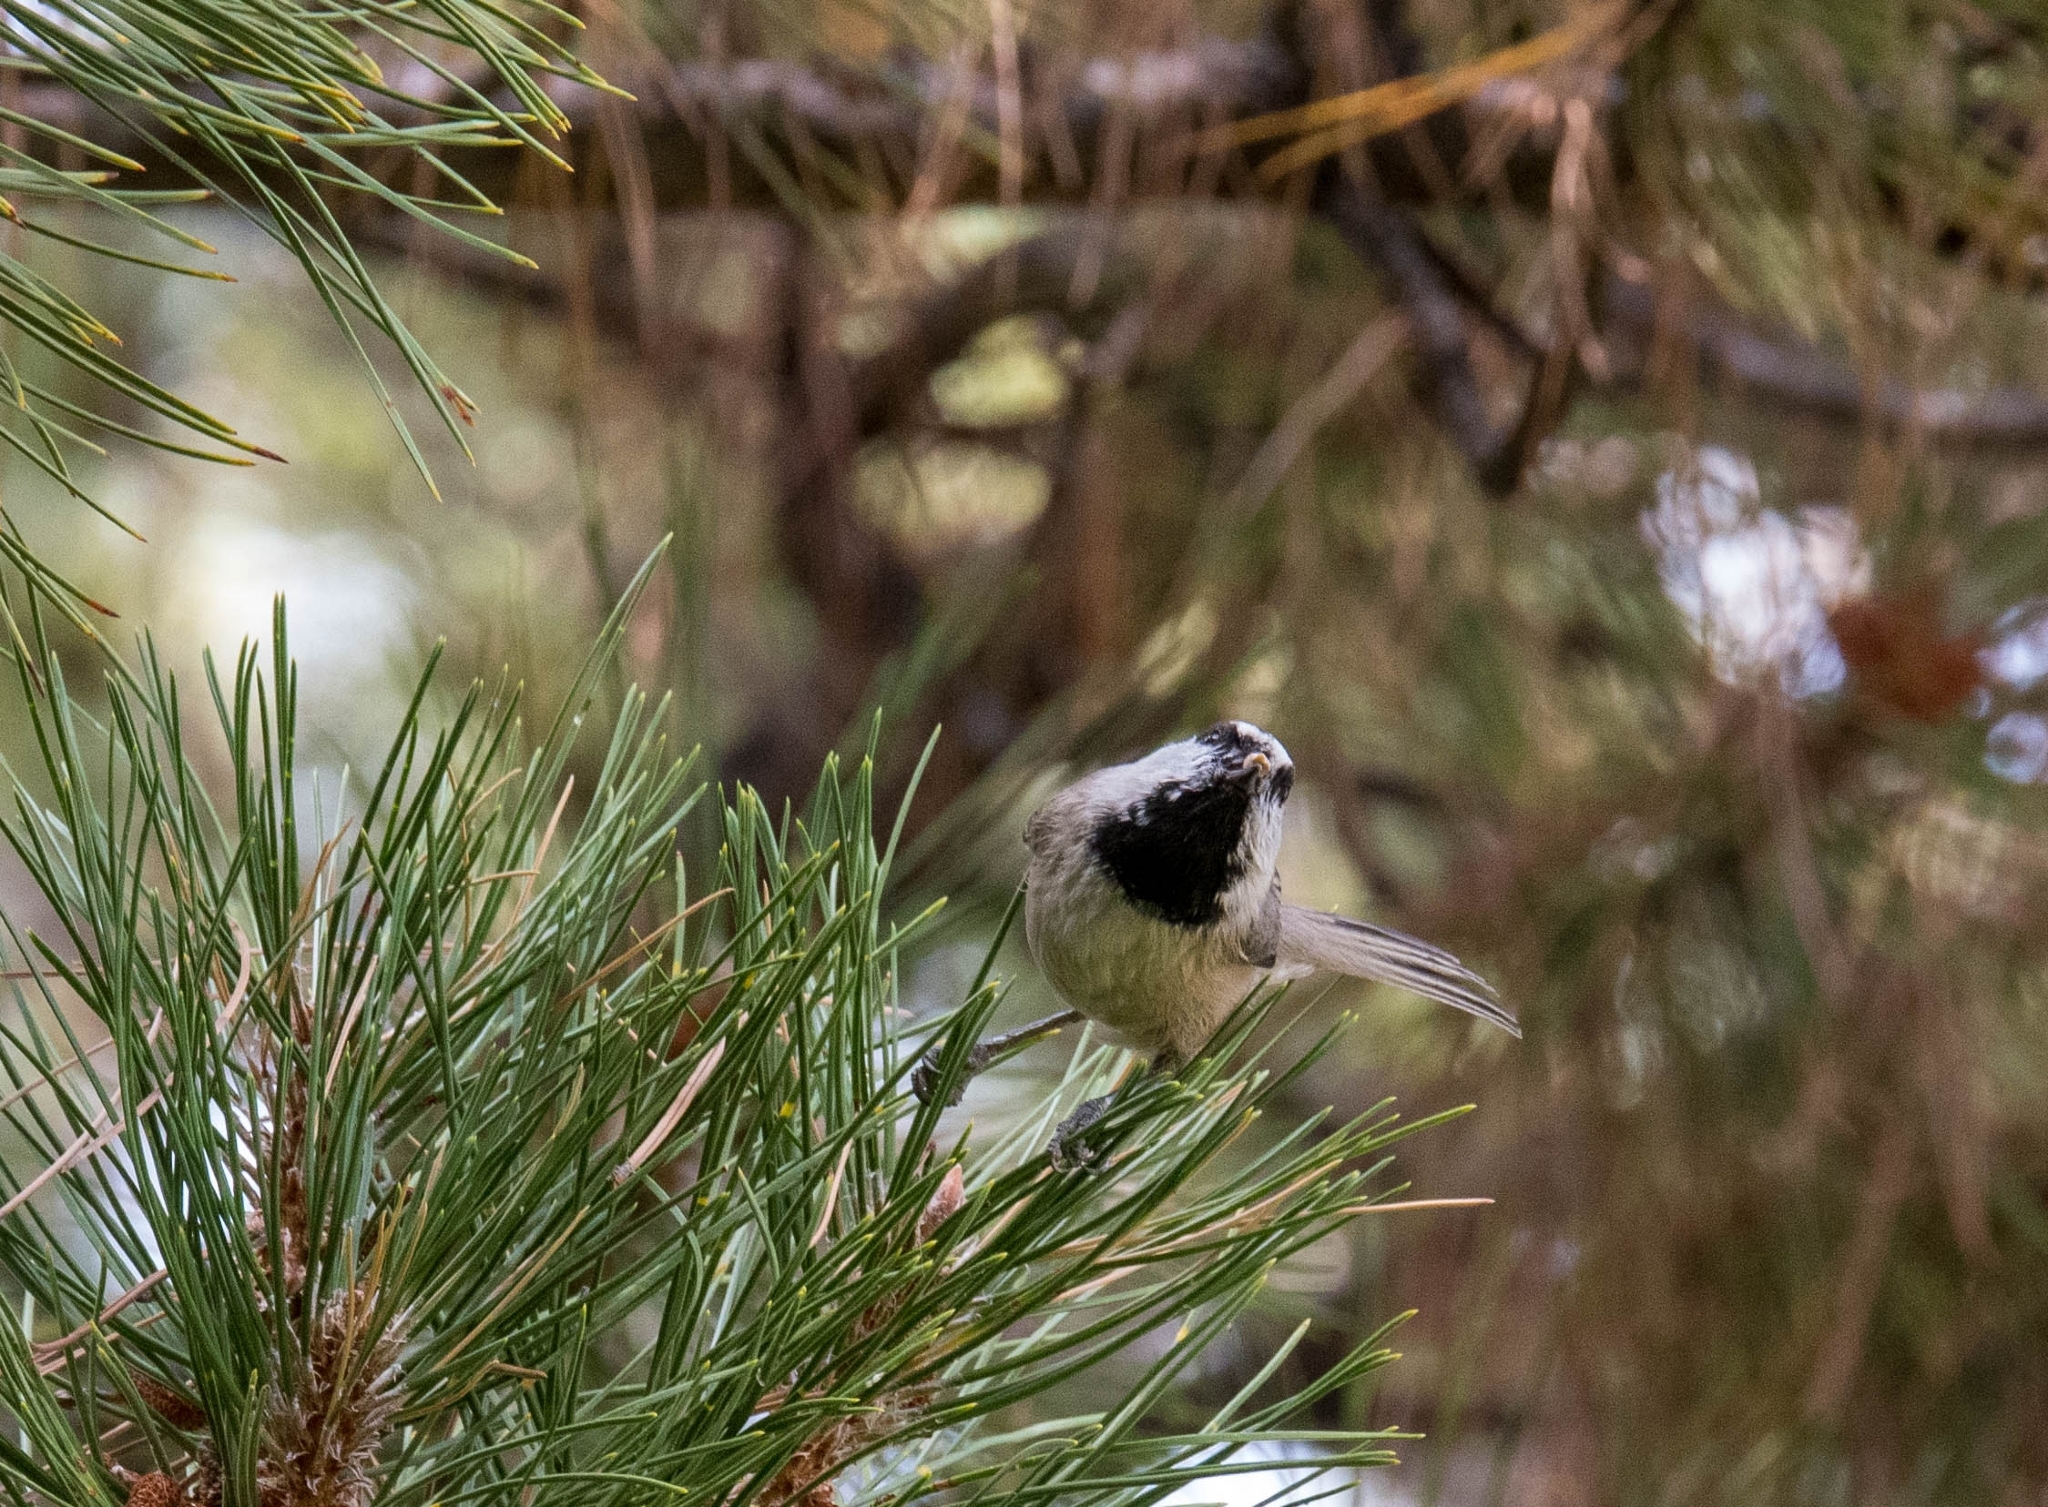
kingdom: Animalia
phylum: Chordata
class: Aves
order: Passeriformes
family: Paridae
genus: Poecile
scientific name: Poecile gambeli
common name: Mountain chickadee
